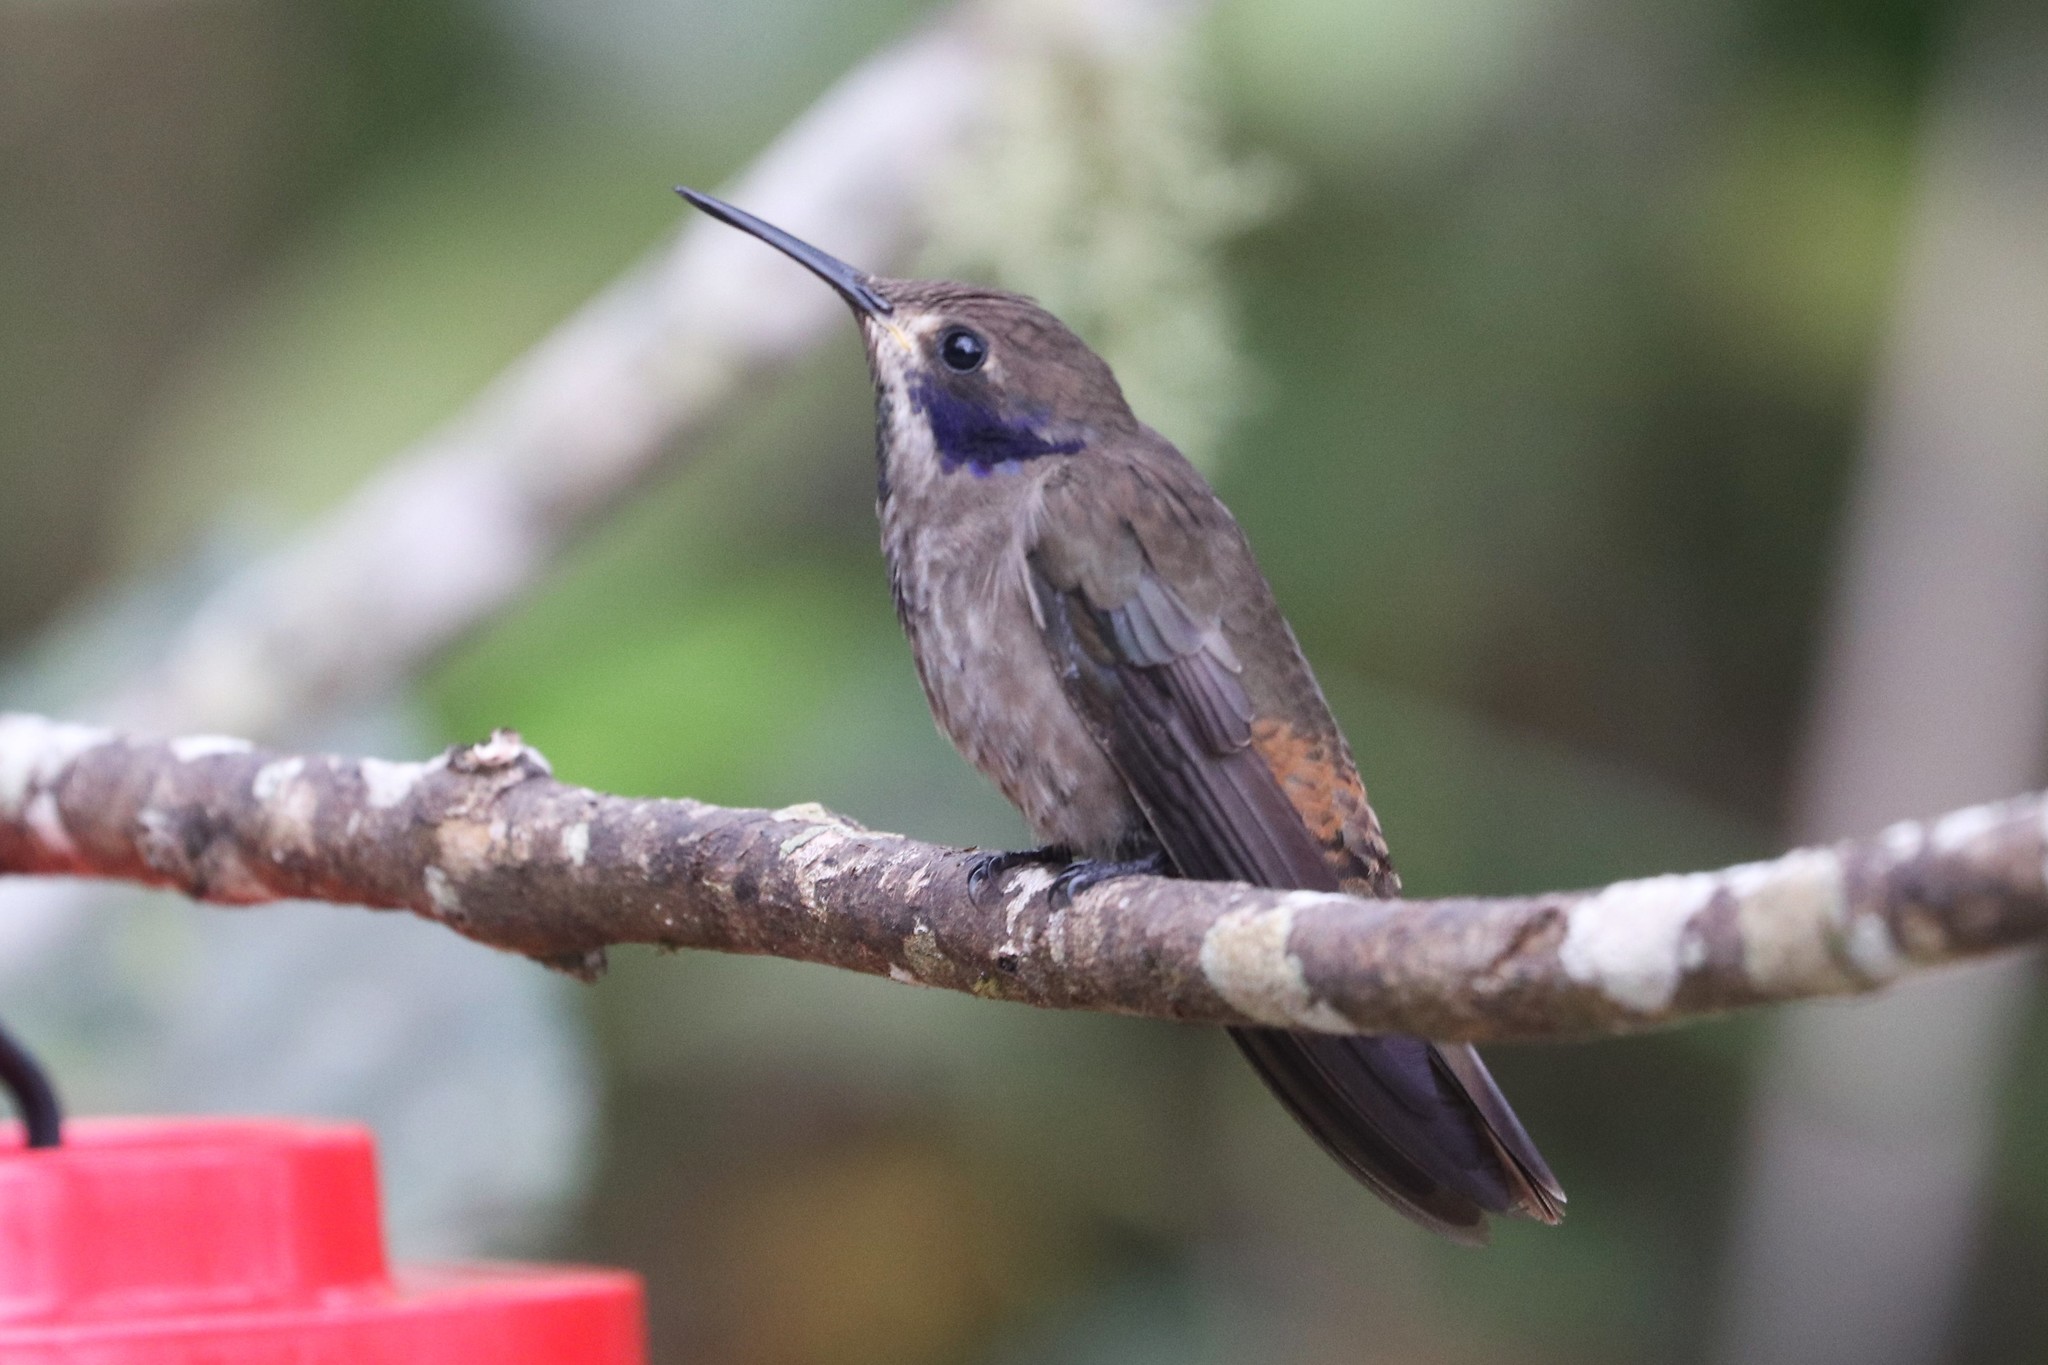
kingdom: Animalia
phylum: Chordata
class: Aves
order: Apodiformes
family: Trochilidae
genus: Colibri
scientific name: Colibri delphinae
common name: Brown violetear
